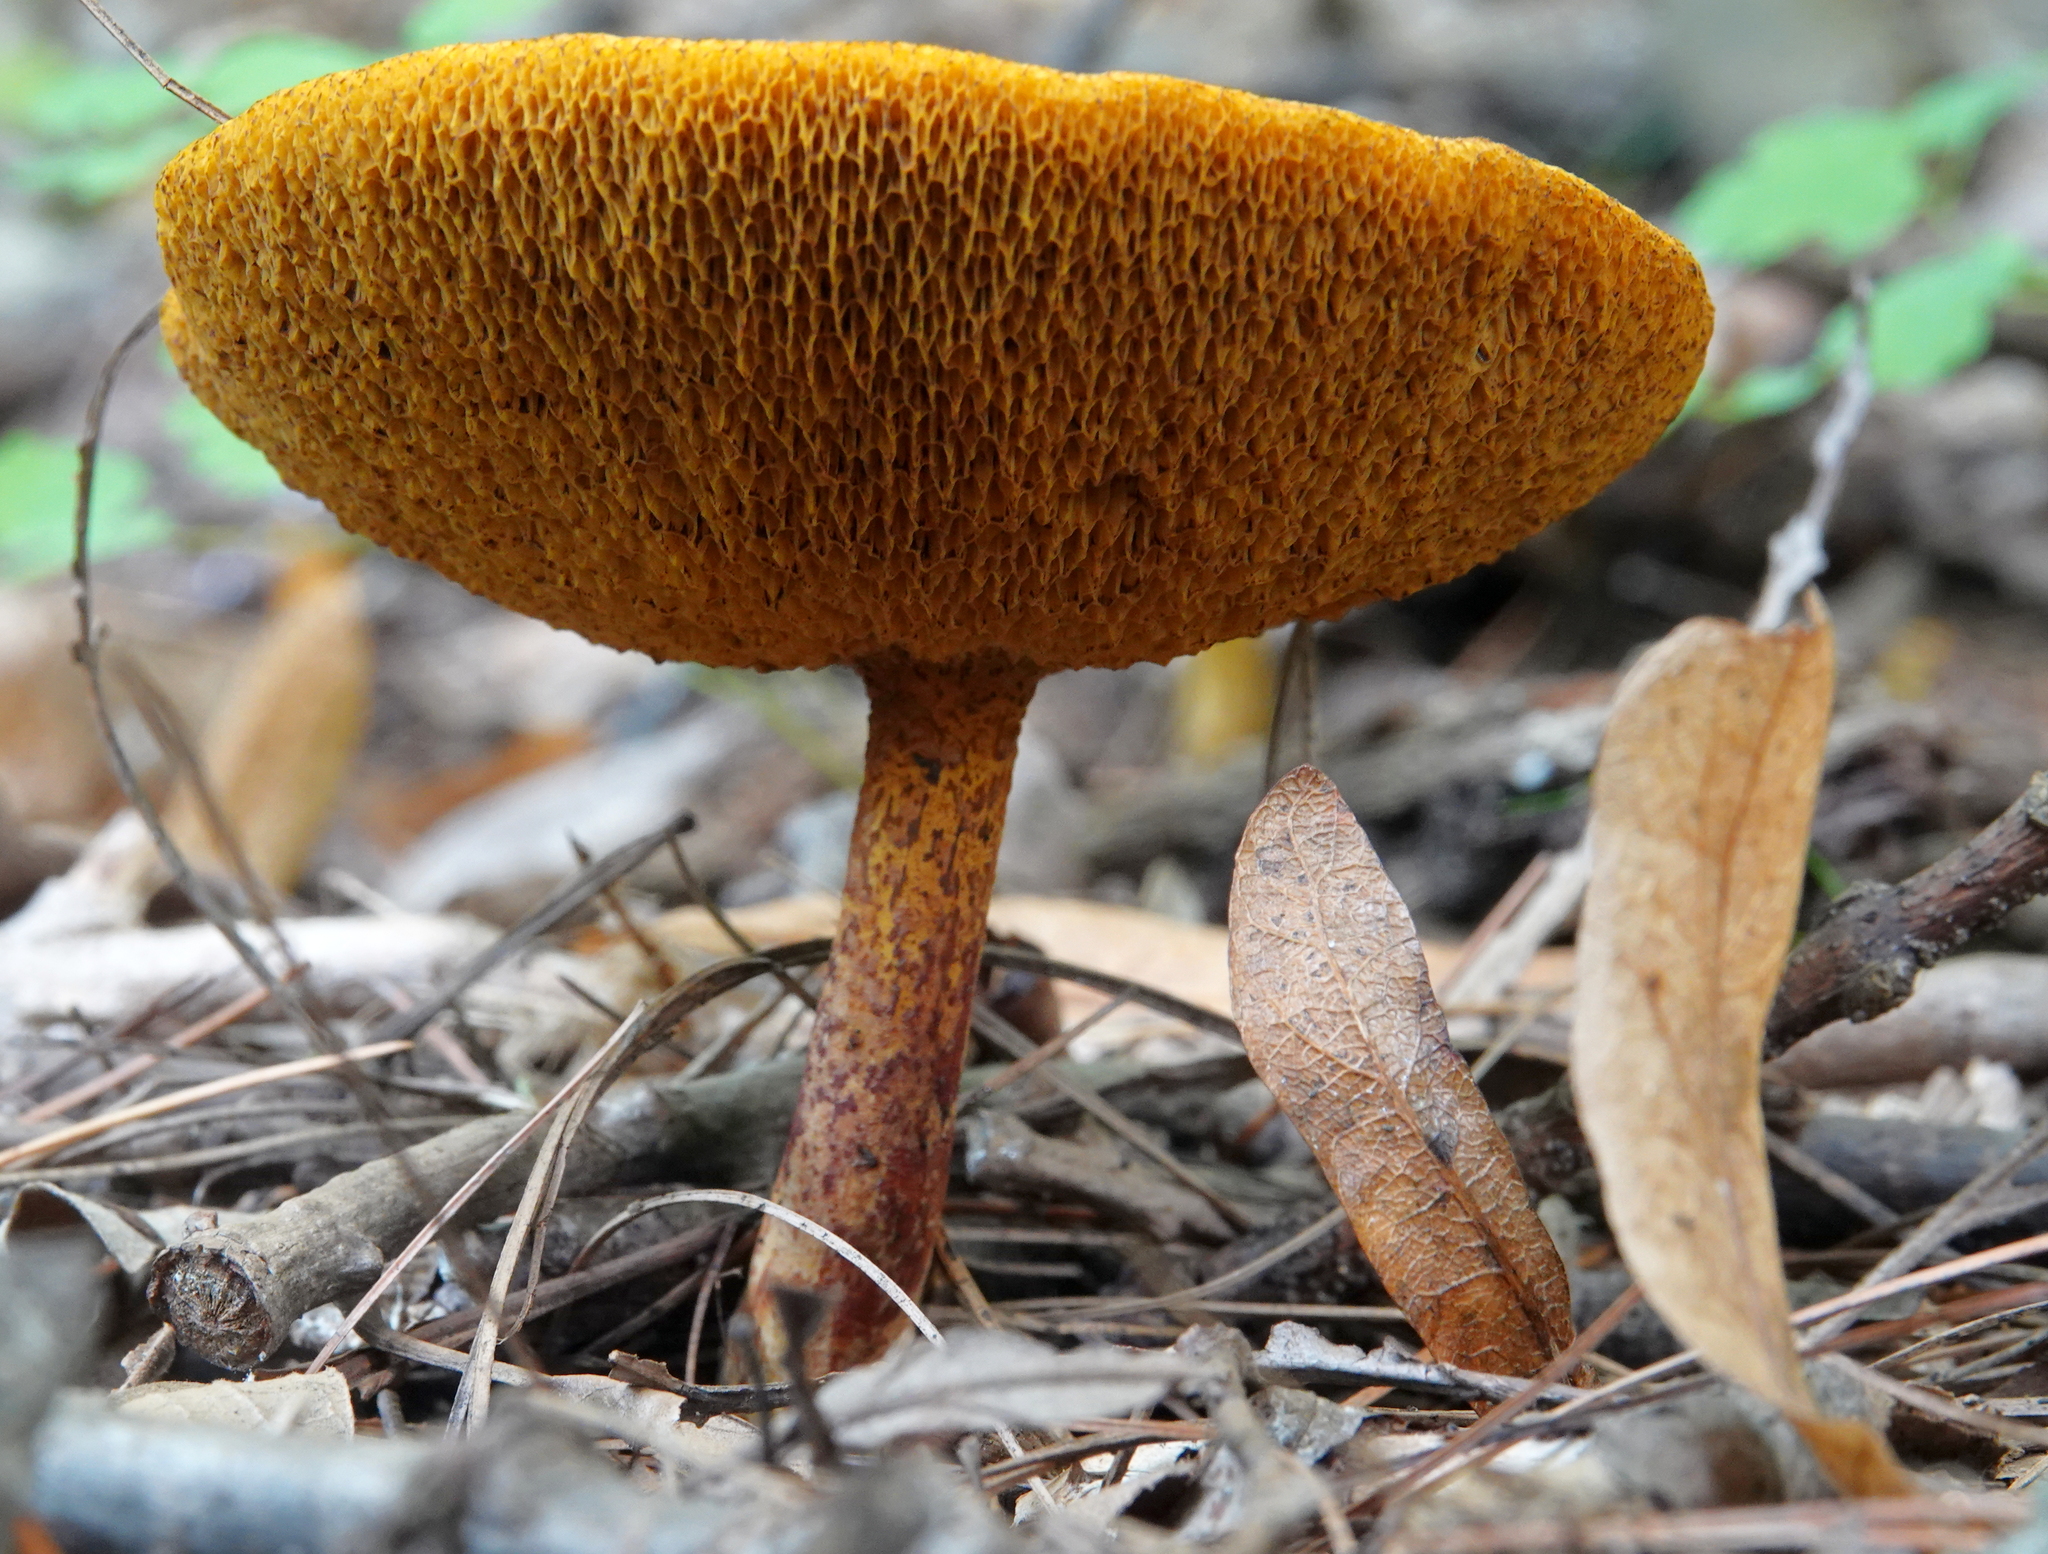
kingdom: Fungi
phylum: Basidiomycota
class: Agaricomycetes
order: Boletales
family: Suillaceae
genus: Suillus
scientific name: Suillus americanus
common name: Chicken fat mushroom
